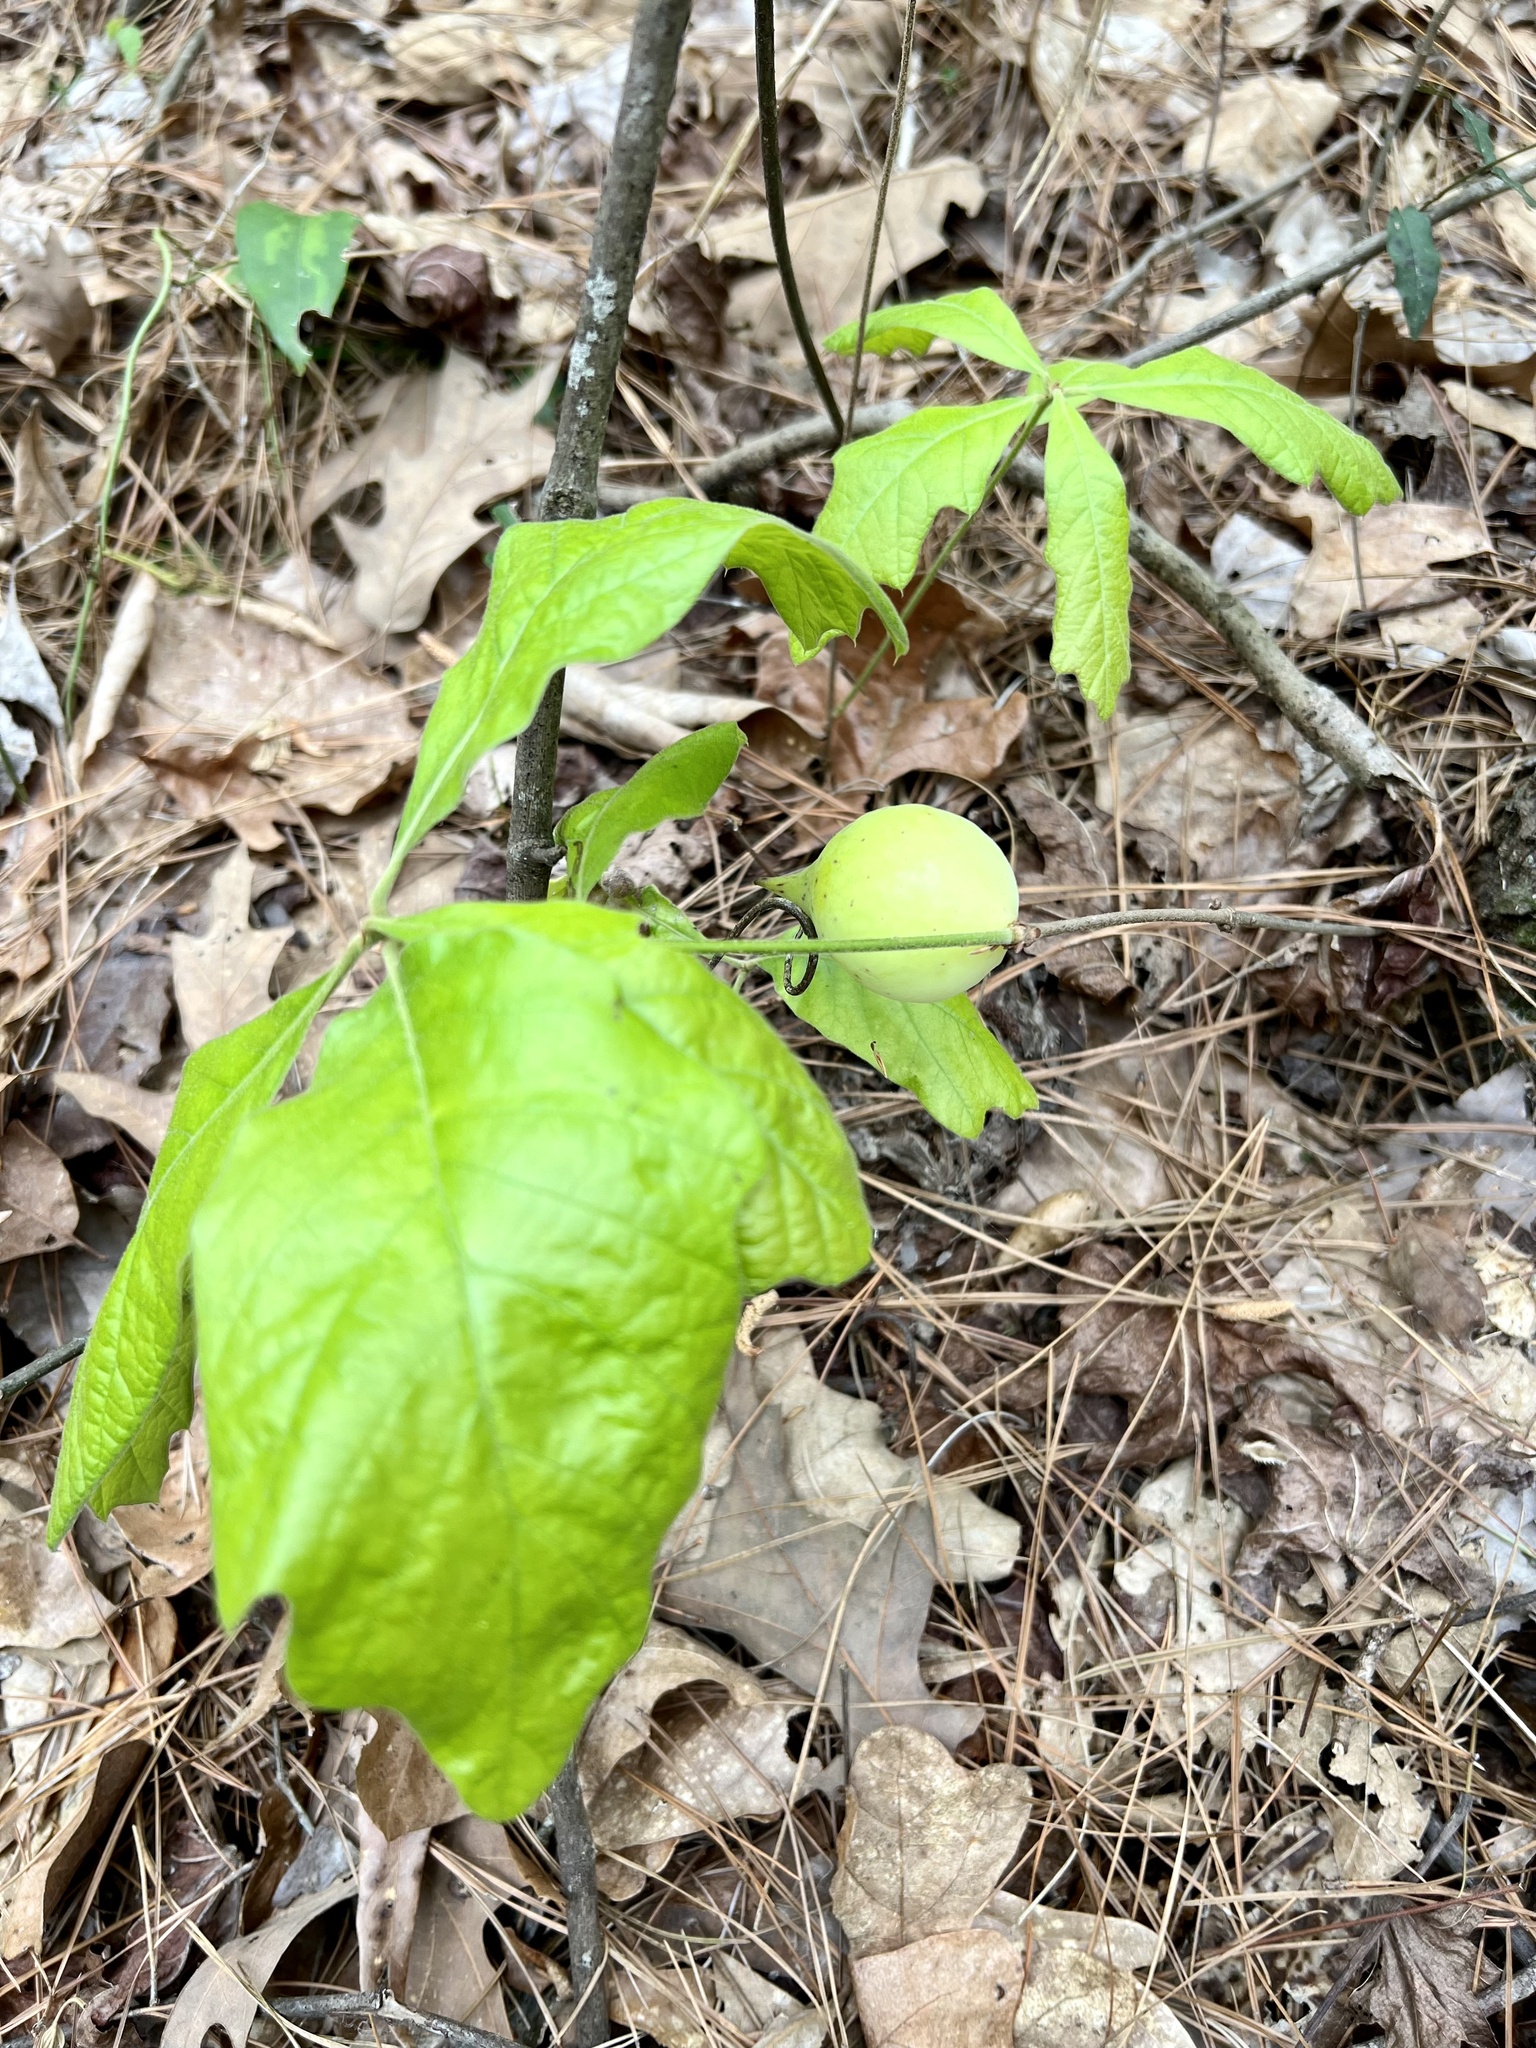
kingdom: Animalia
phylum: Arthropoda
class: Insecta
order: Hymenoptera
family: Cynipidae
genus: Amphibolips
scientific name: Amphibolips
